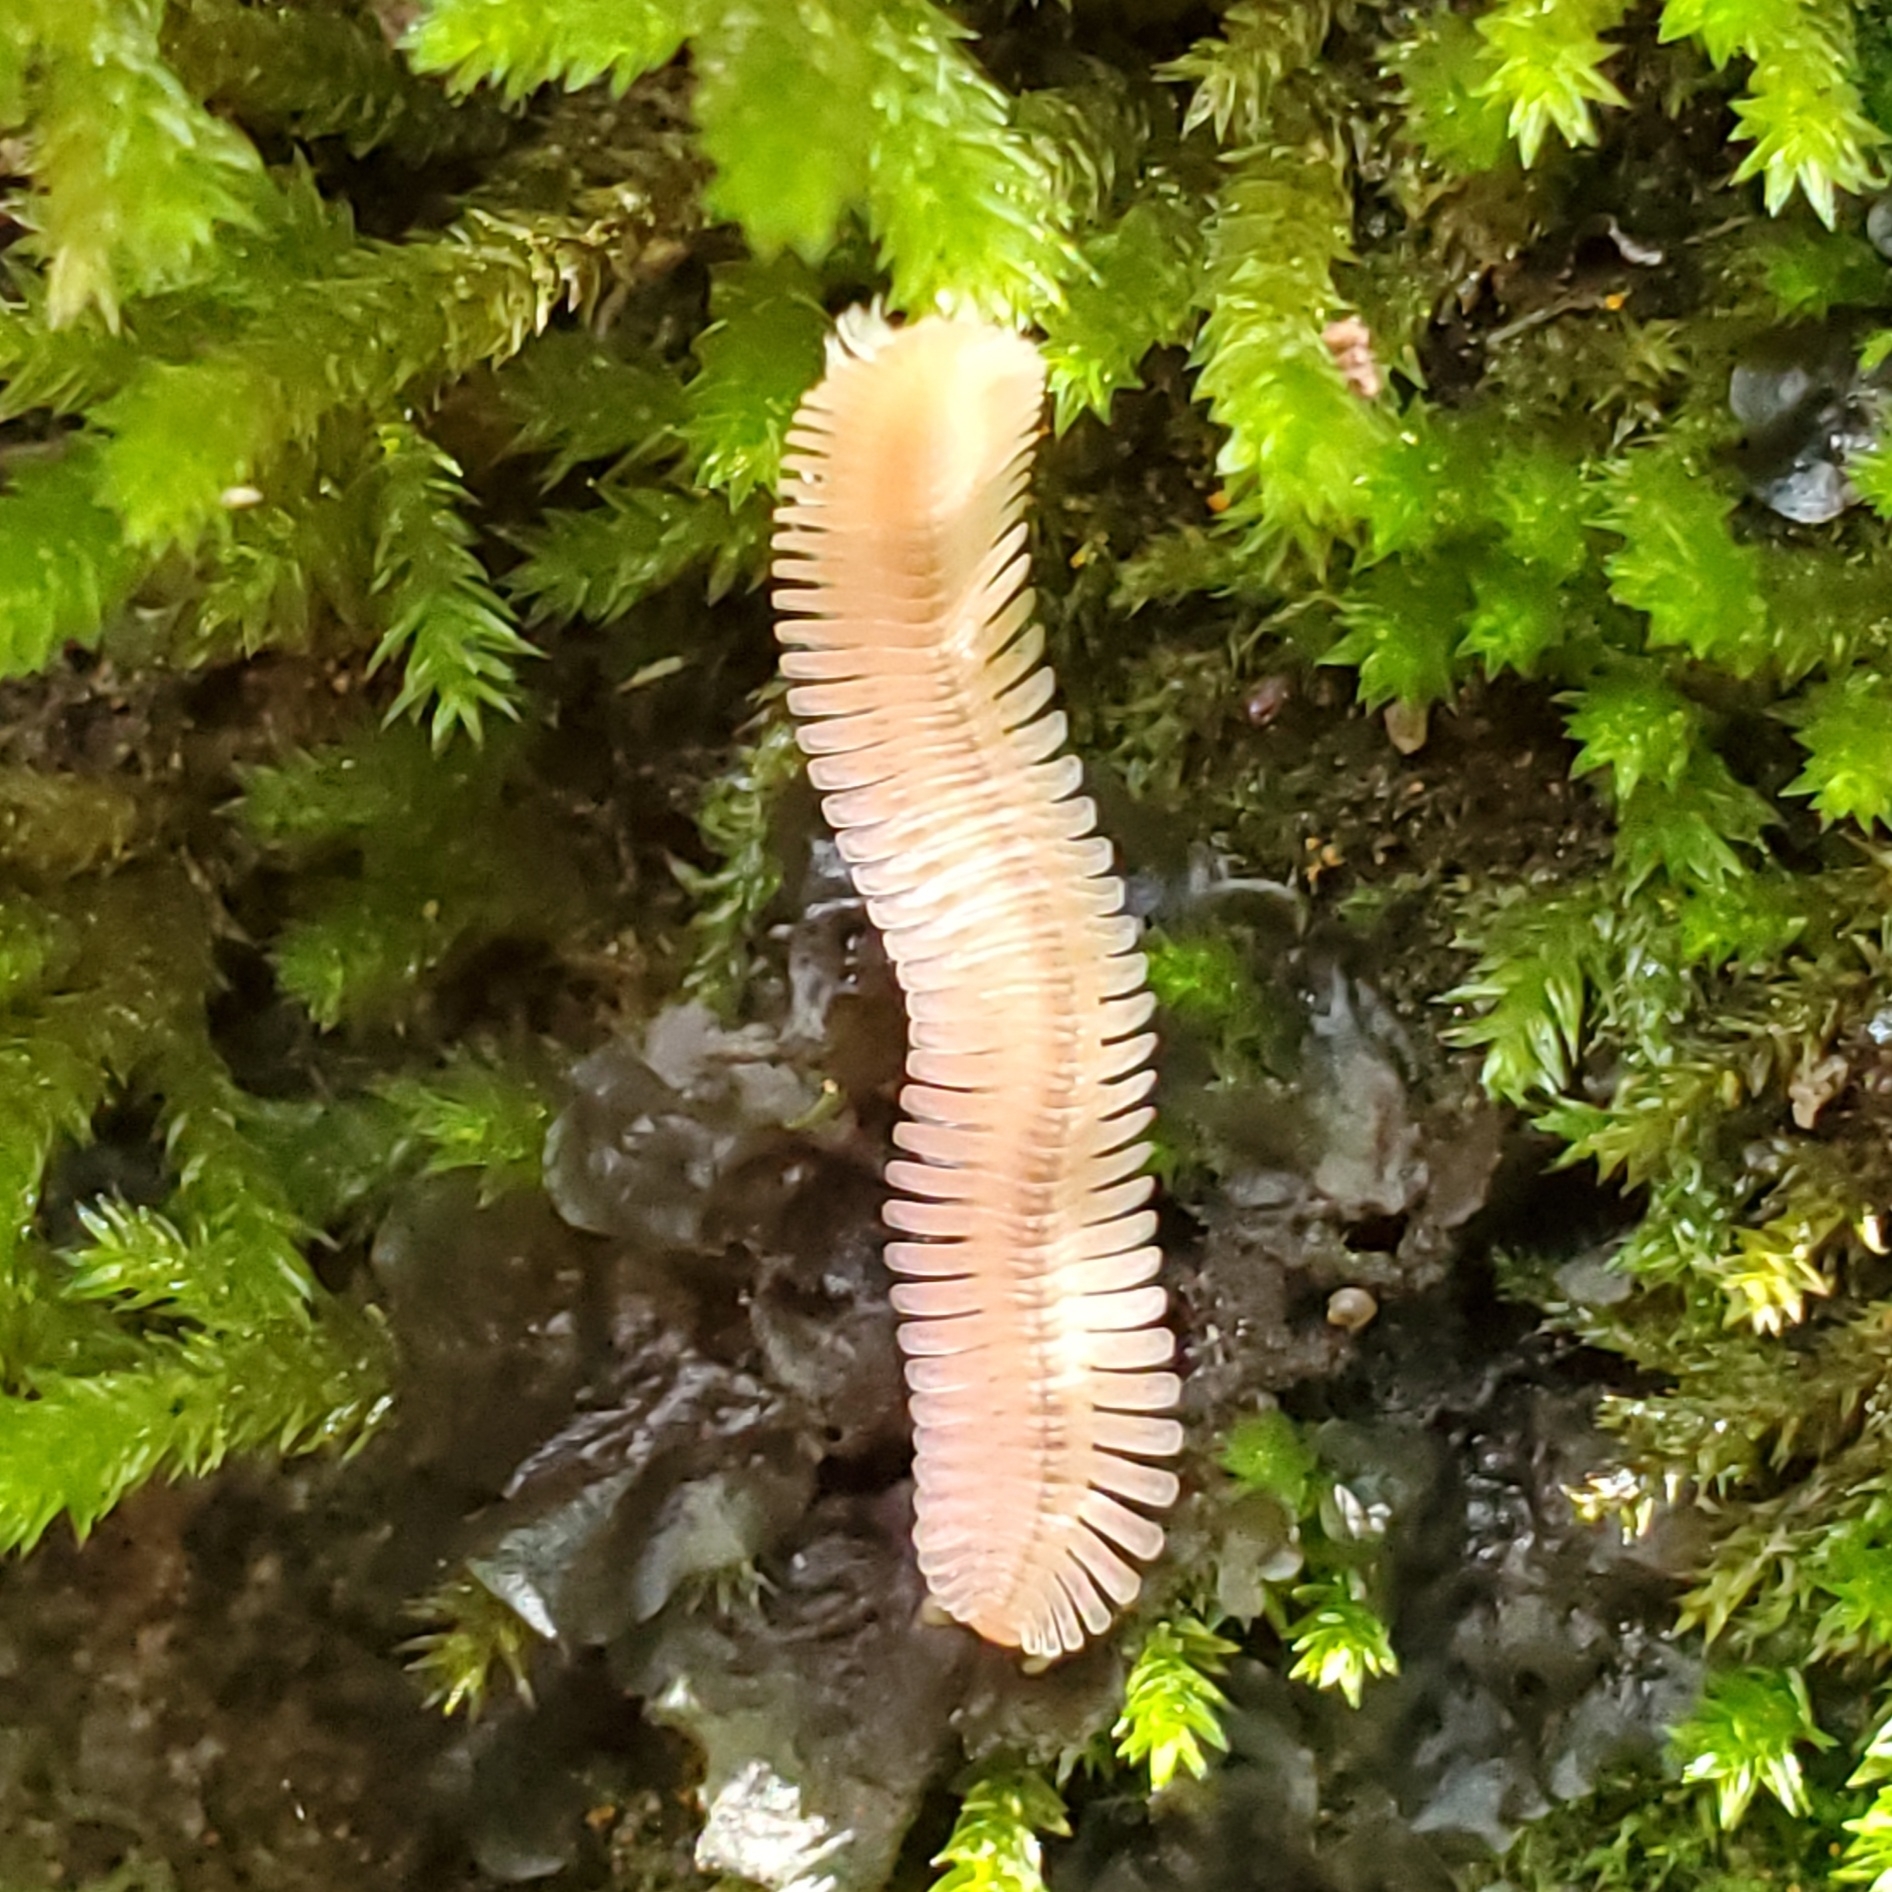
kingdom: Animalia
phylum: Arthropoda
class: Diplopoda
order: Platydesmida
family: Andrognathidae
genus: Brachycybe
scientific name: Brachycybe lecontii
